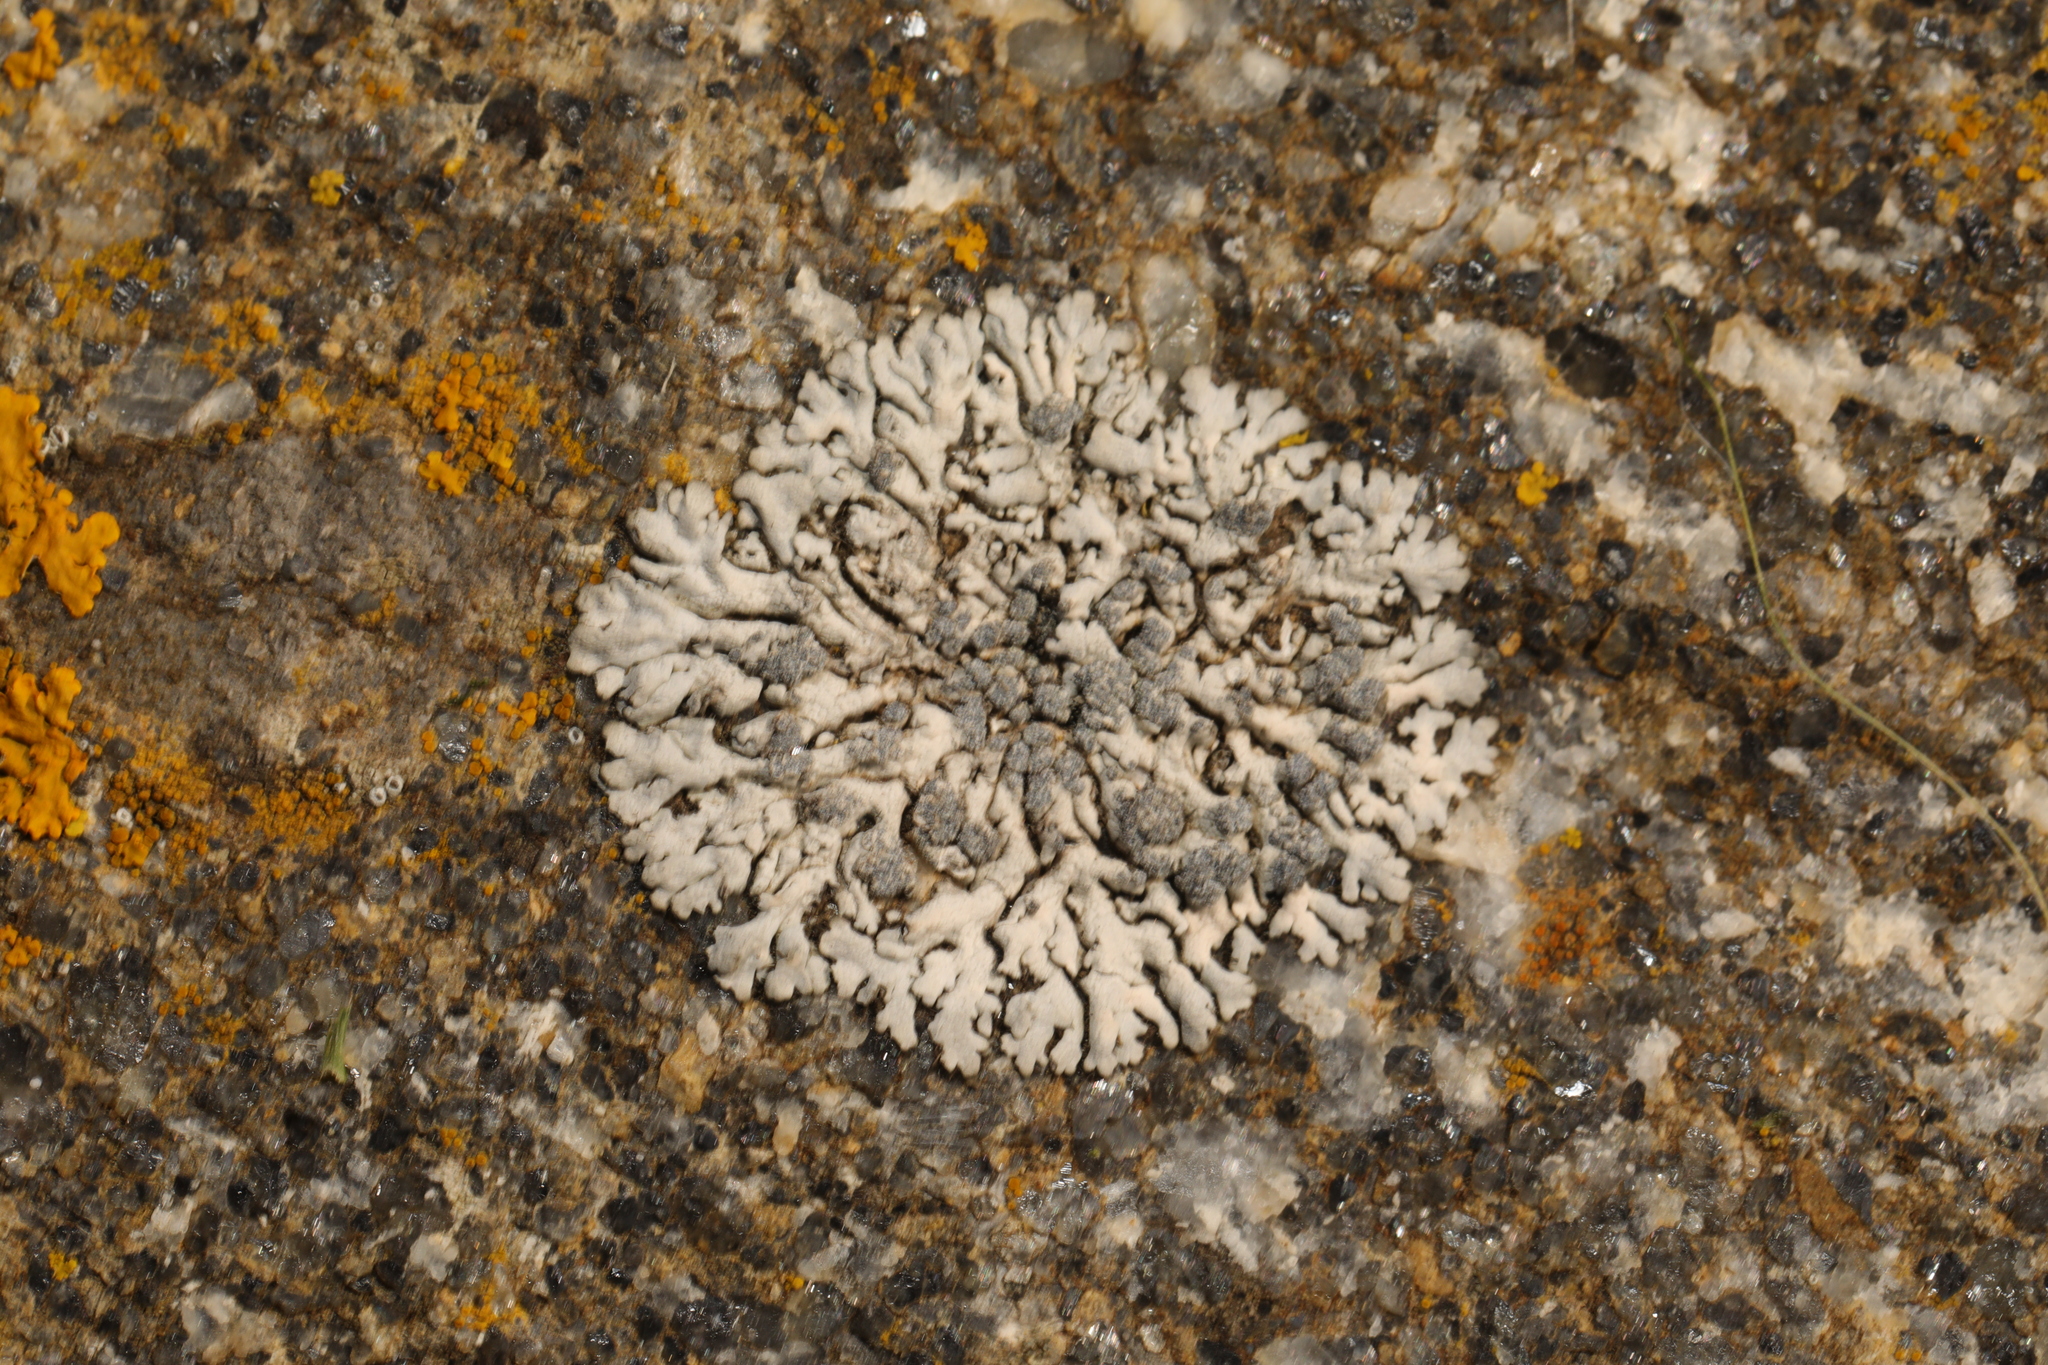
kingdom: Fungi
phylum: Ascomycota
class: Lecanoromycetes
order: Caliciales
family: Physciaceae
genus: Physcia
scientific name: Physcia caesia
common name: Blue-gray rosette lichen
